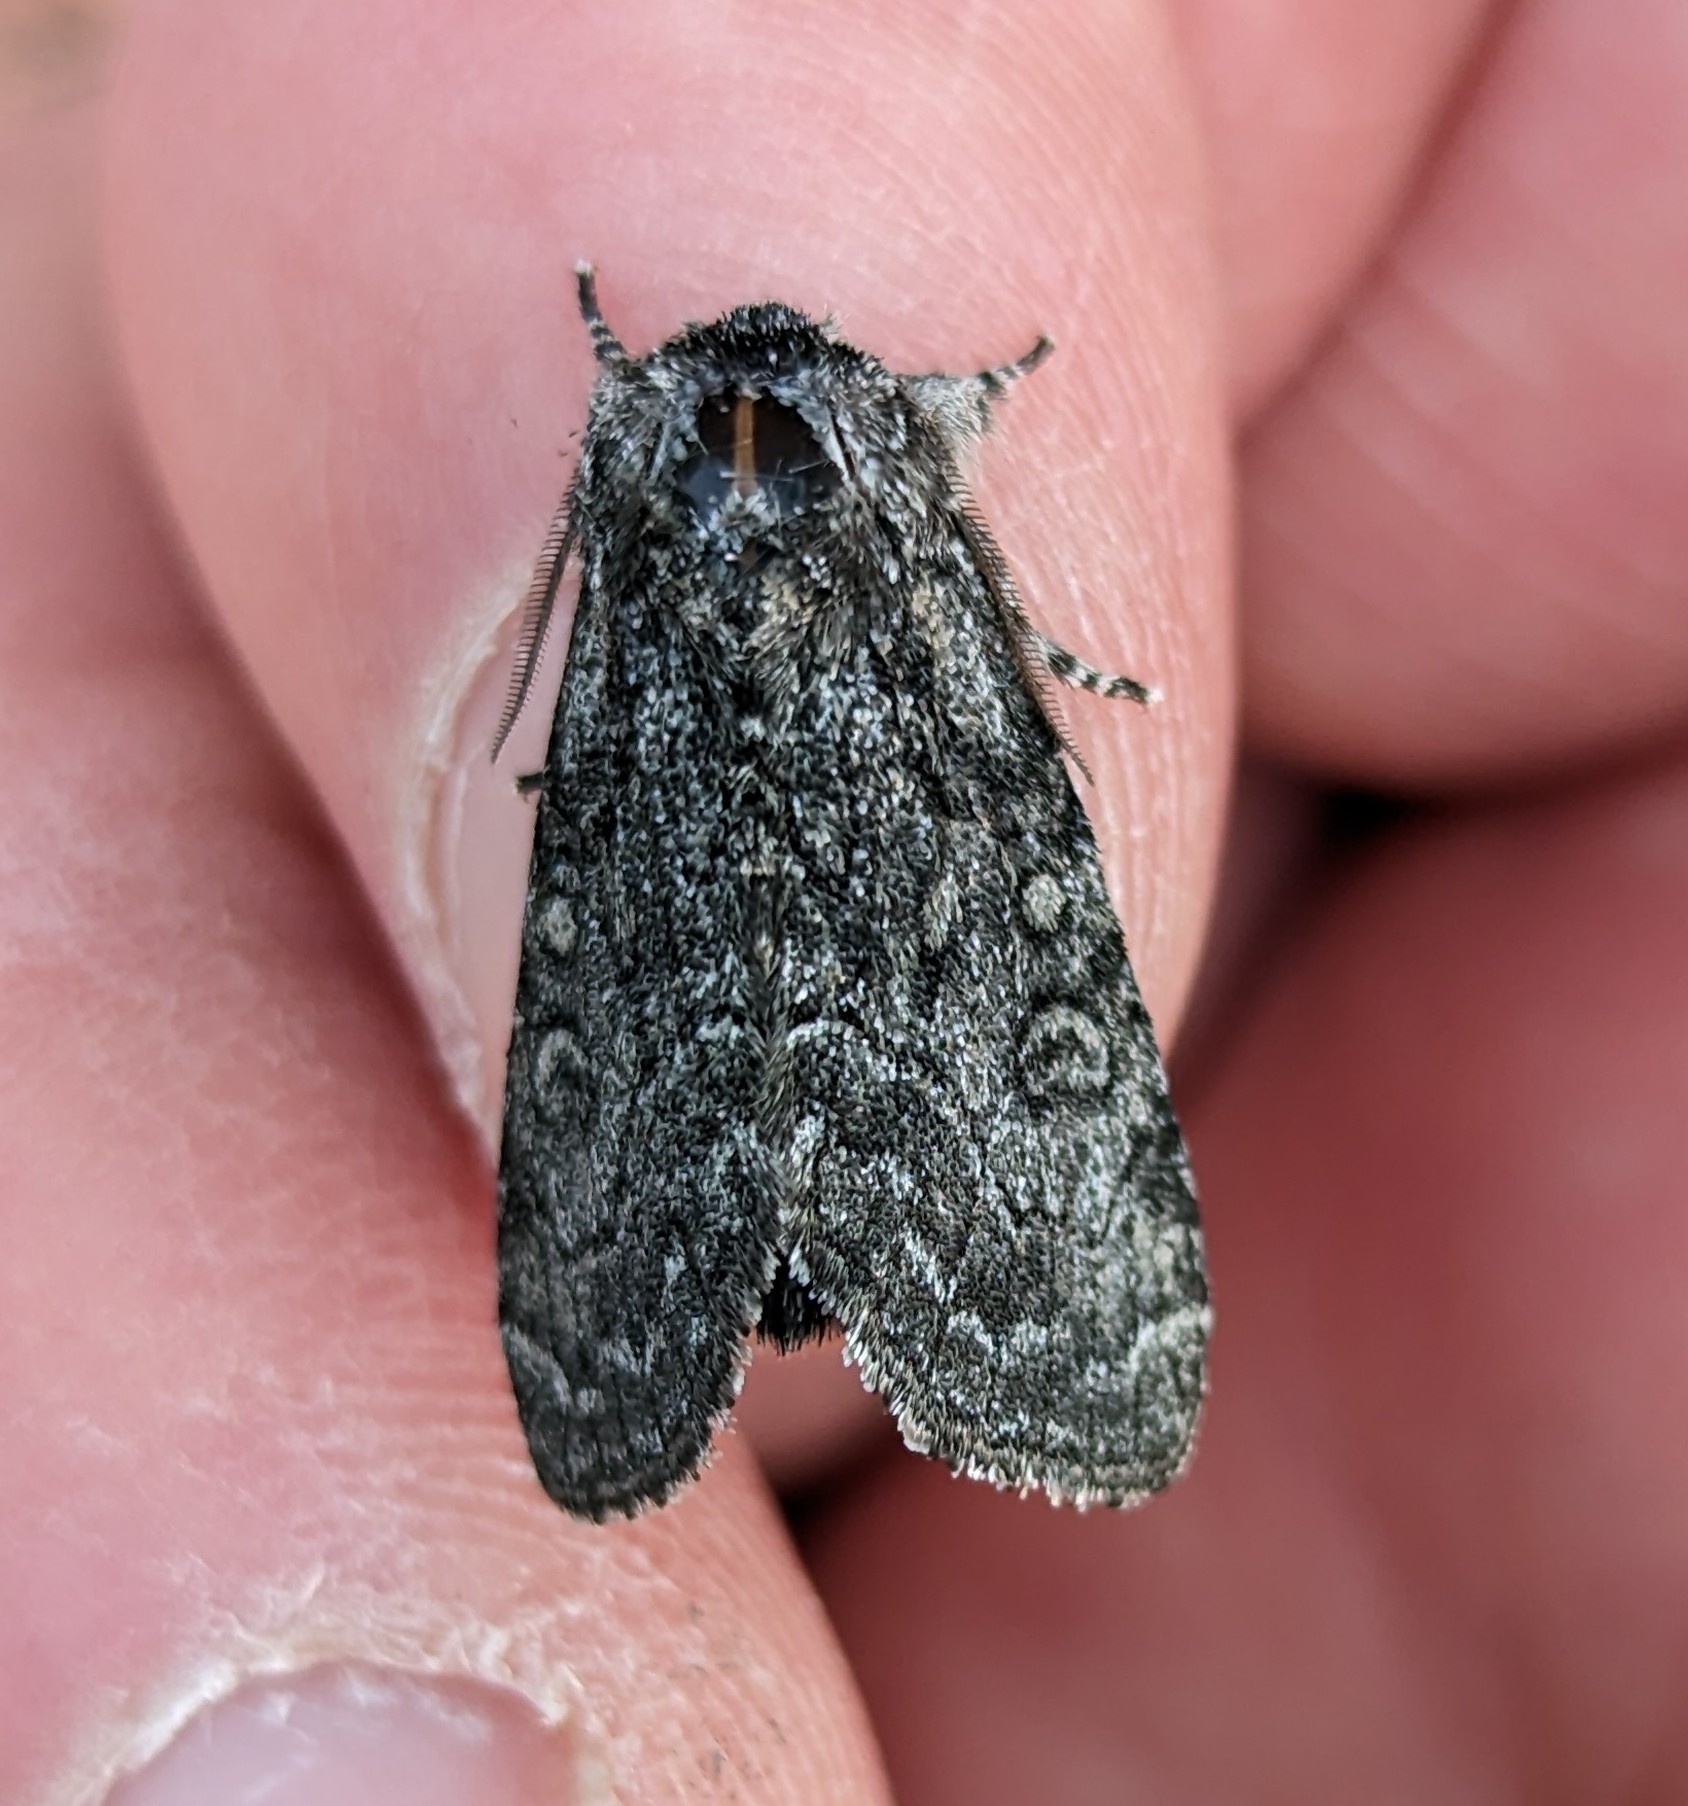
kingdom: Animalia
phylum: Arthropoda
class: Insecta
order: Lepidoptera
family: Noctuidae
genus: Raphia
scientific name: Raphia frater
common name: Brother
